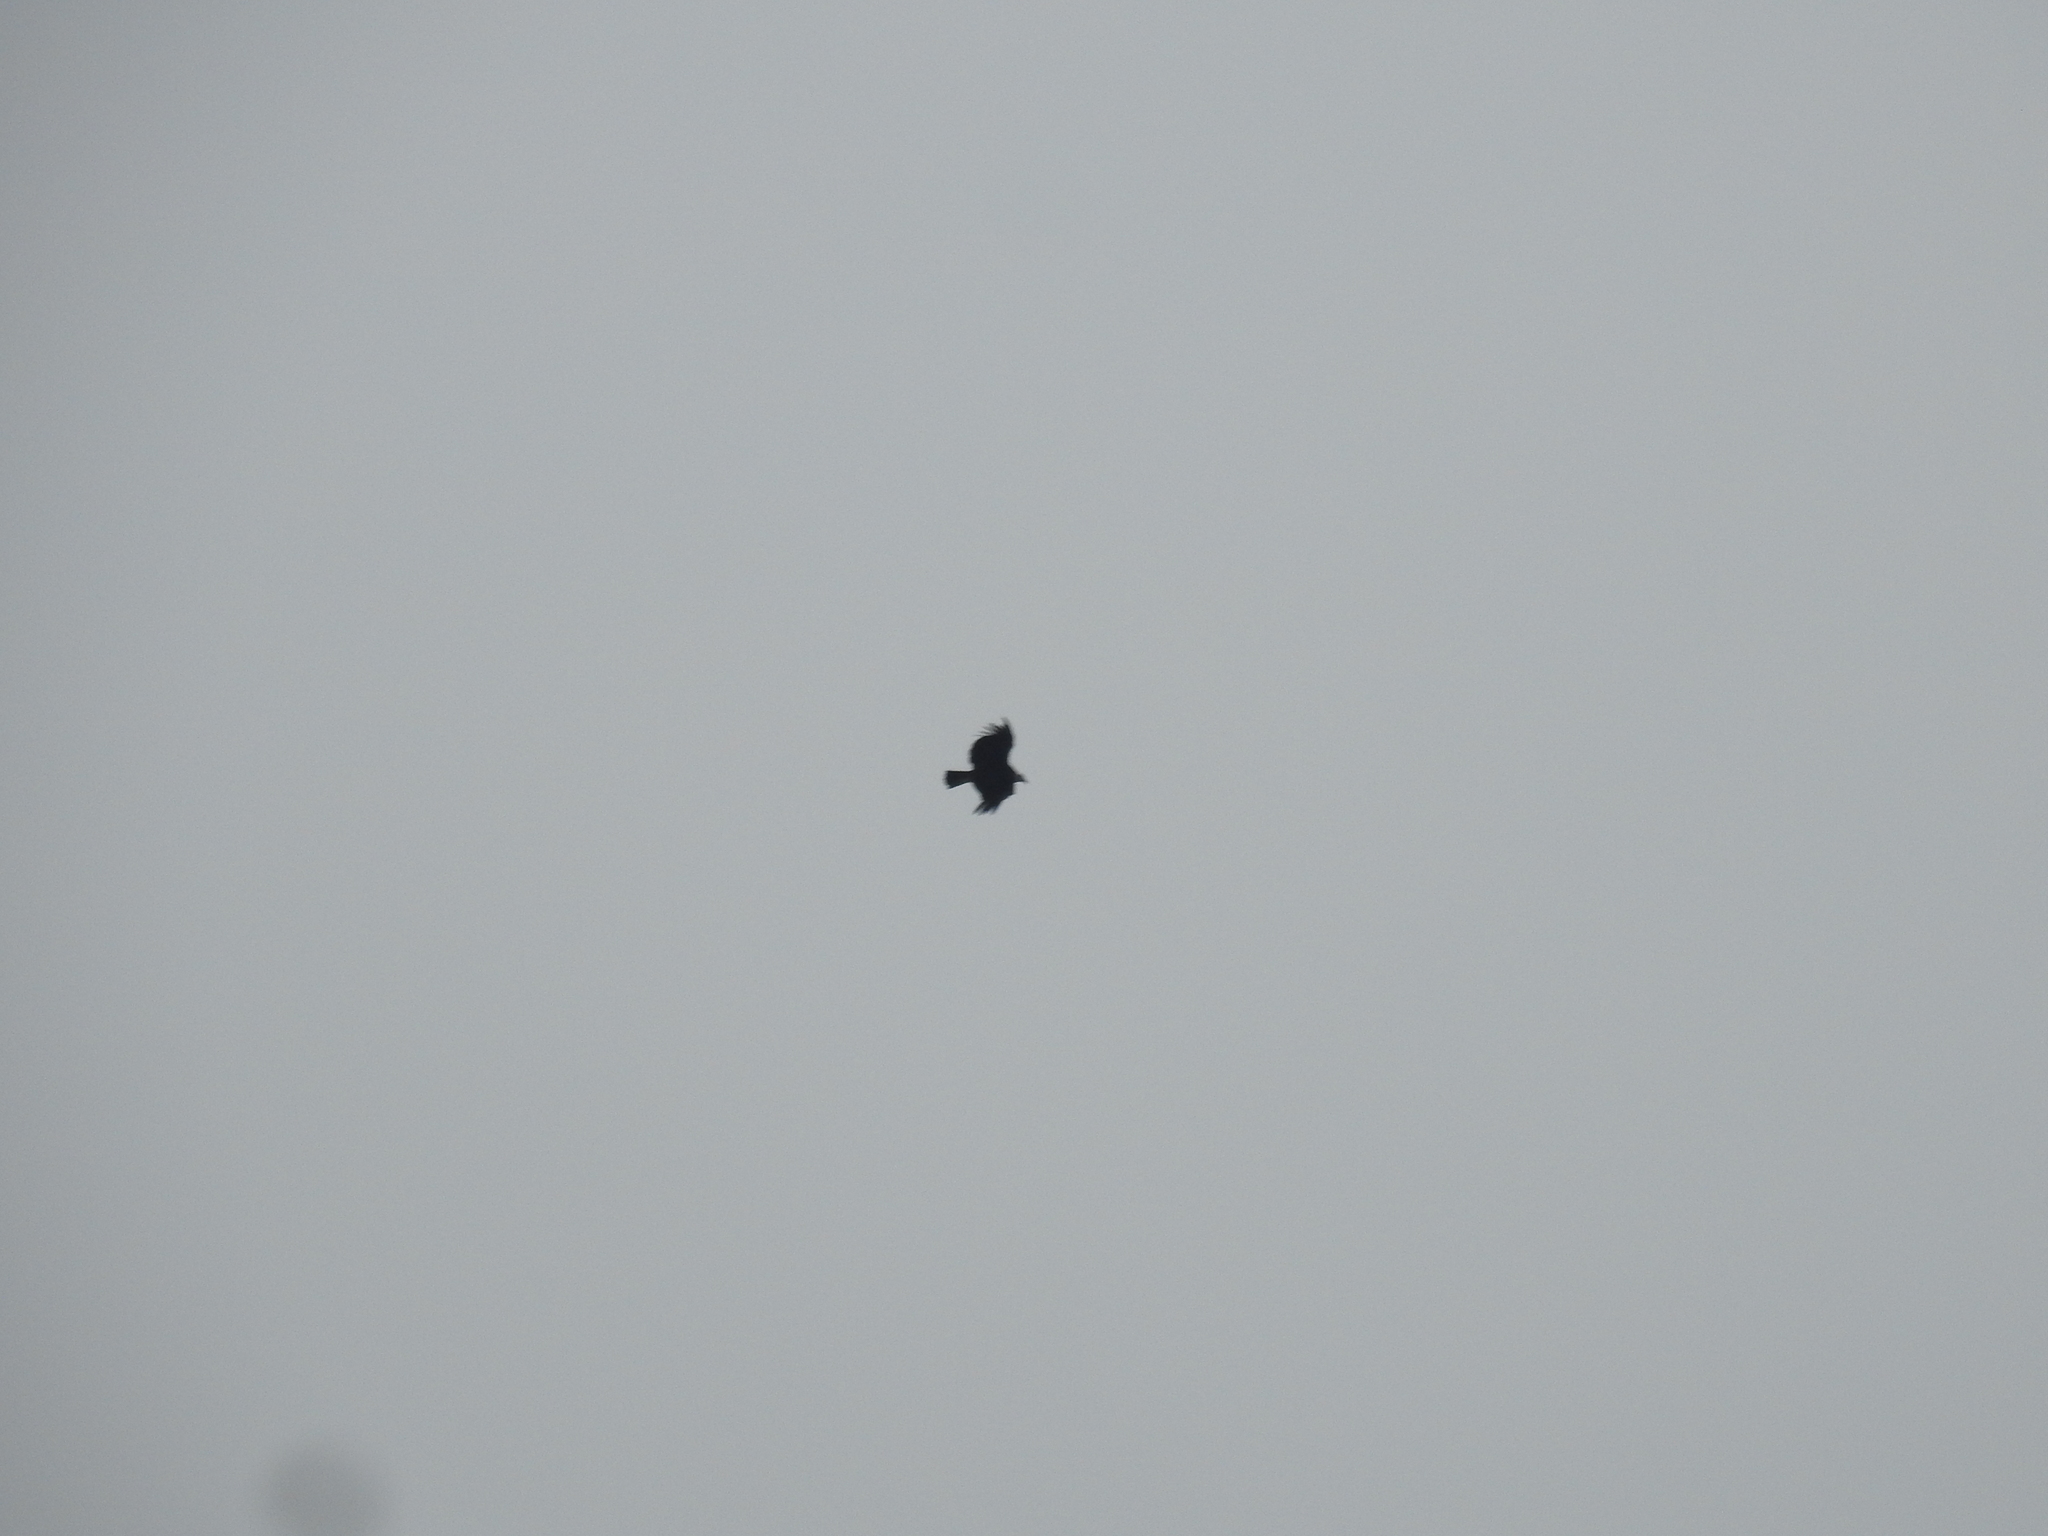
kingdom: Animalia
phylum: Chordata
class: Aves
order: Accipitriformes
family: Cathartidae
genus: Vultur
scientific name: Vultur gryphus
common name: Andean condor
